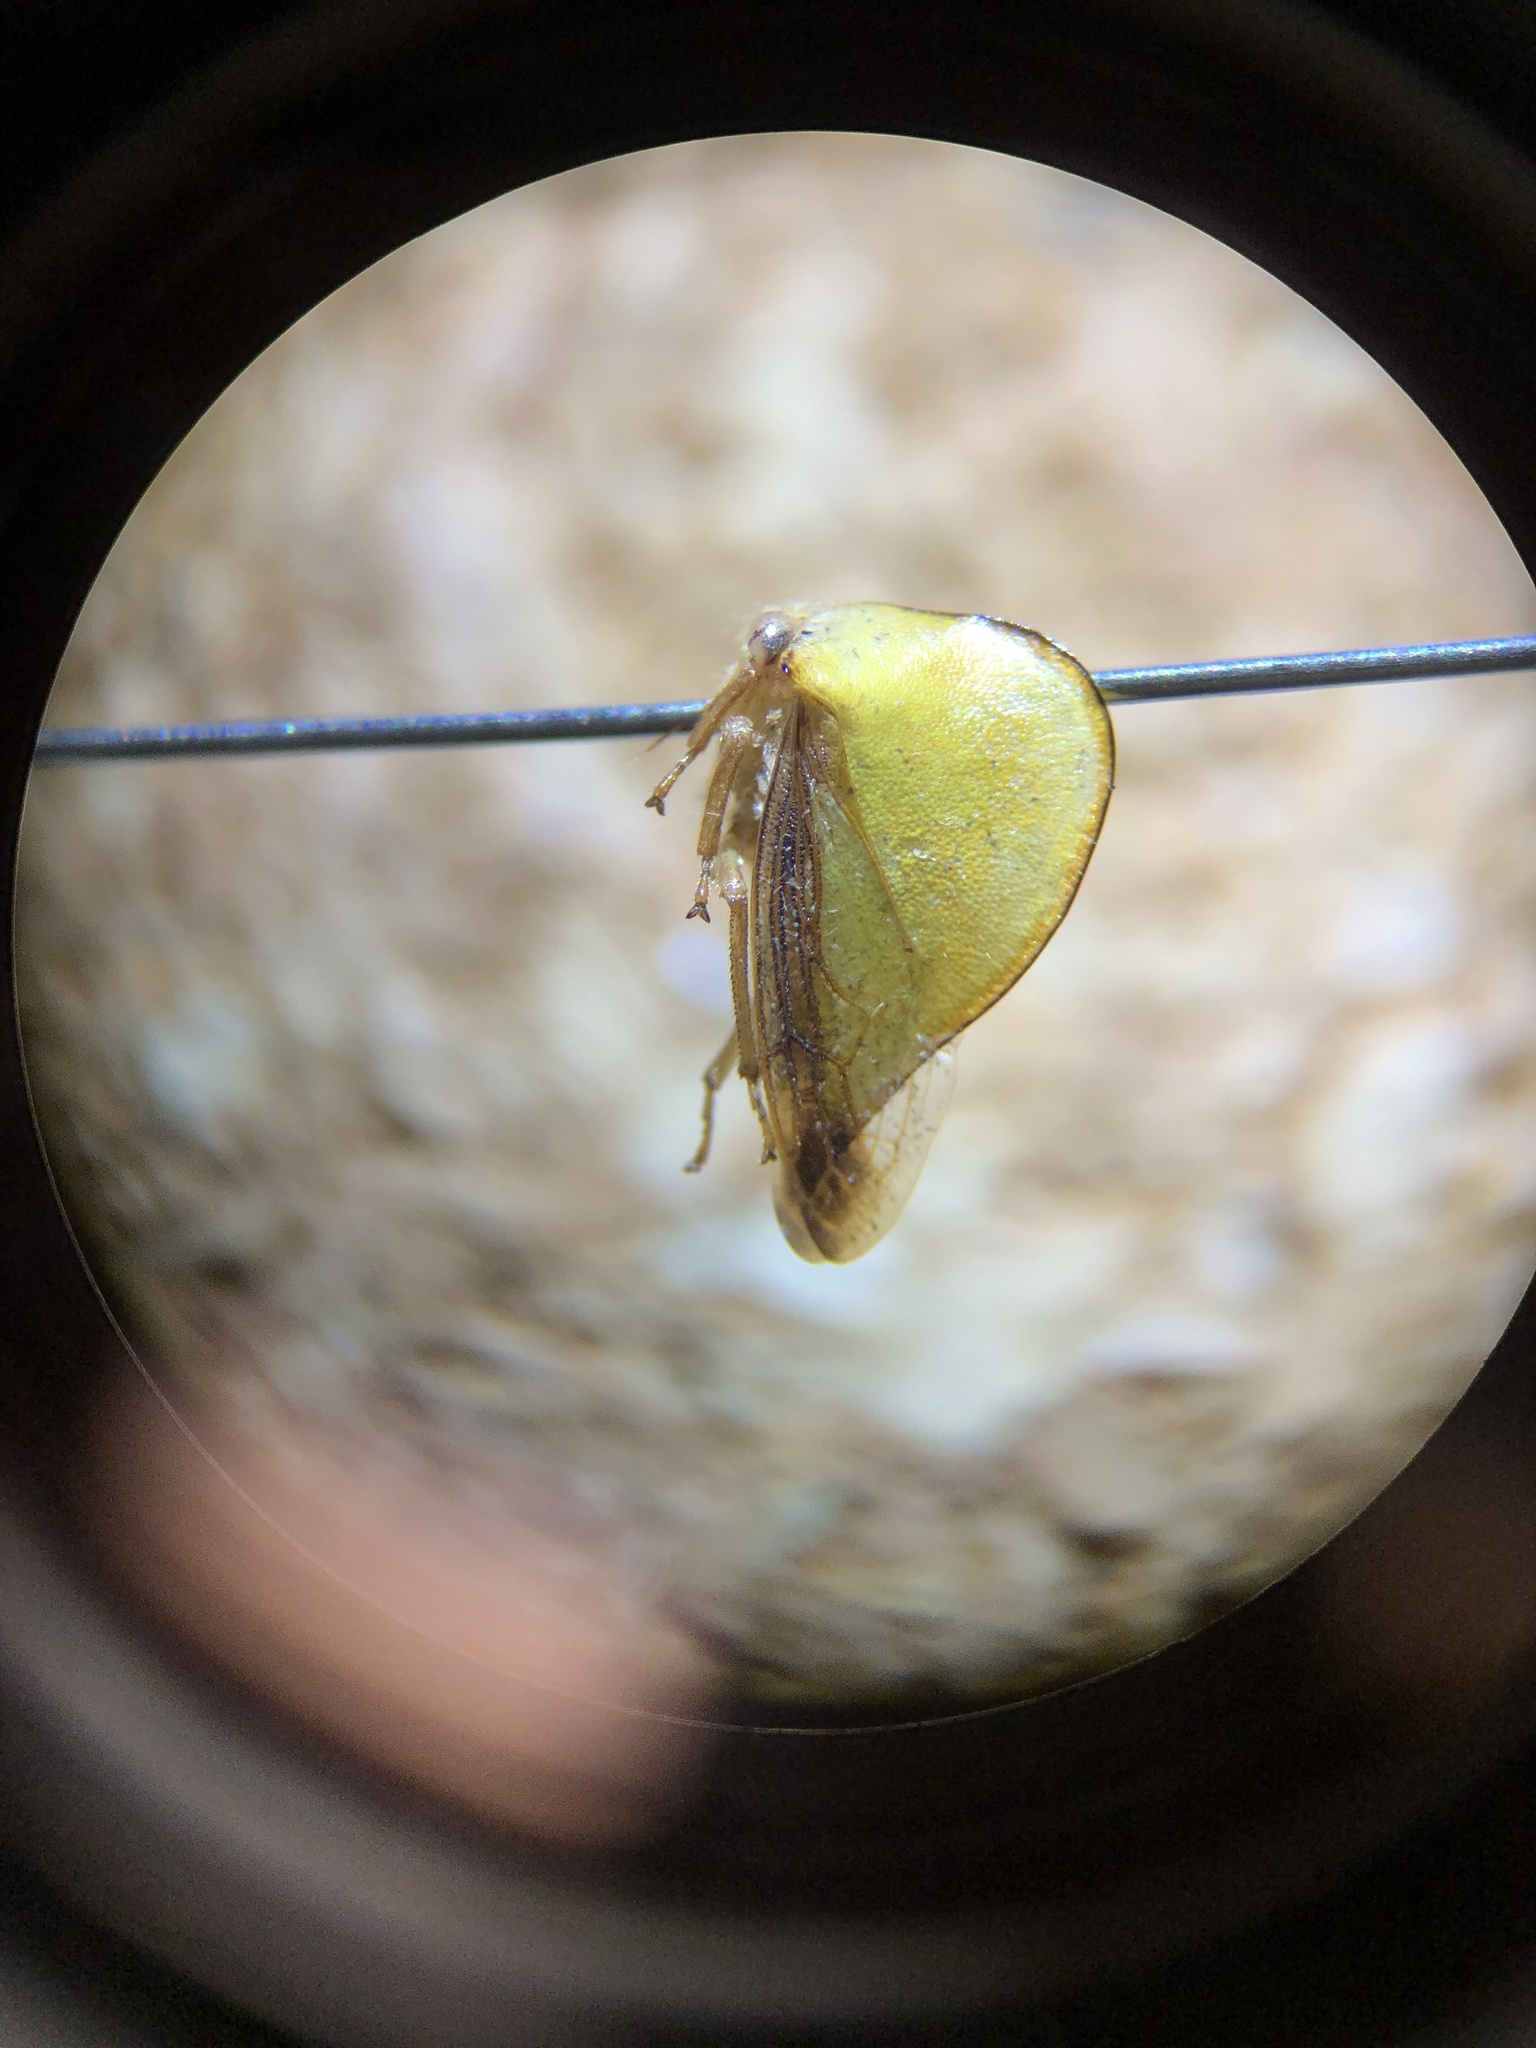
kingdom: Animalia
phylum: Arthropoda
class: Insecta
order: Hemiptera
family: Membracidae
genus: Archasia
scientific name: Archasia belfragei
